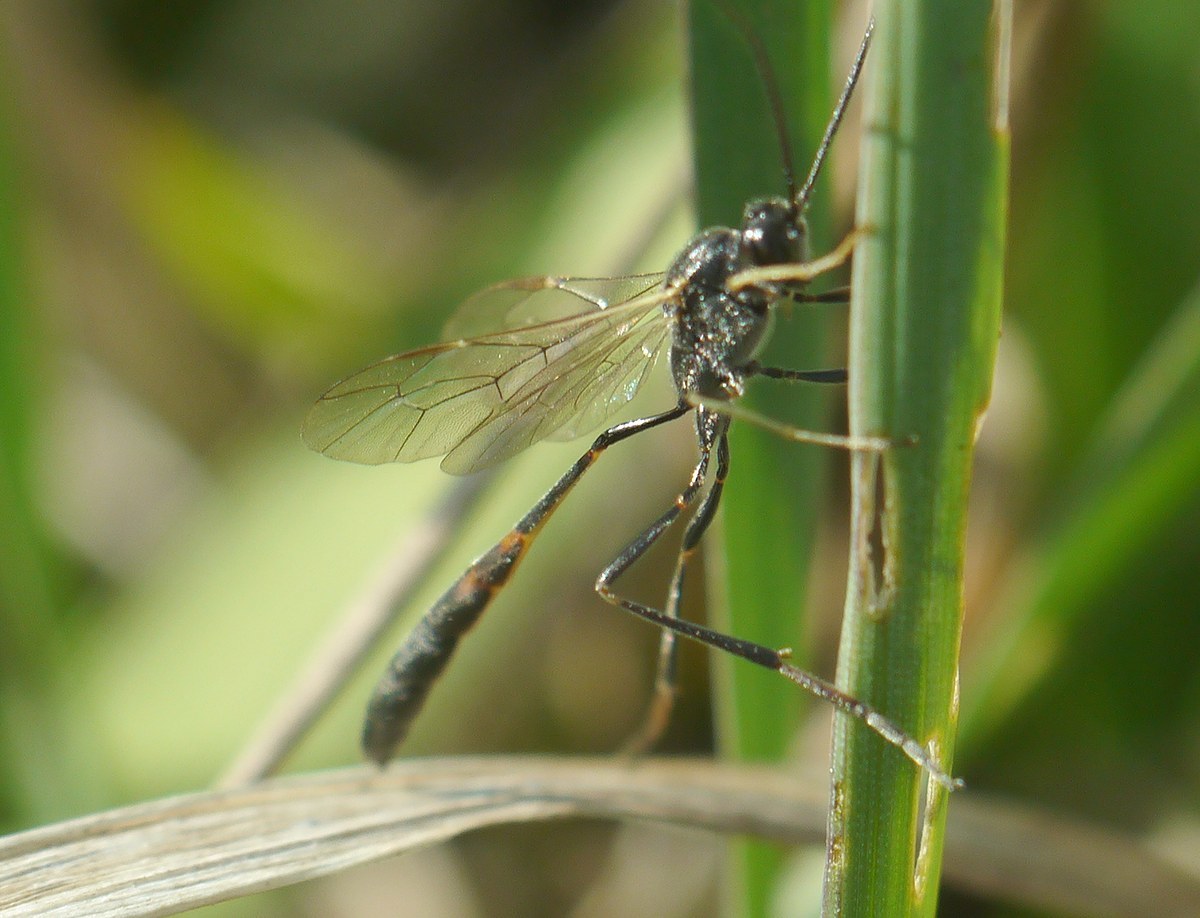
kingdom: Animalia
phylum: Arthropoda
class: Insecta
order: Hymenoptera
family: Ichneumonidae
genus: Barylypa
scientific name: Barylypa uniguttata
